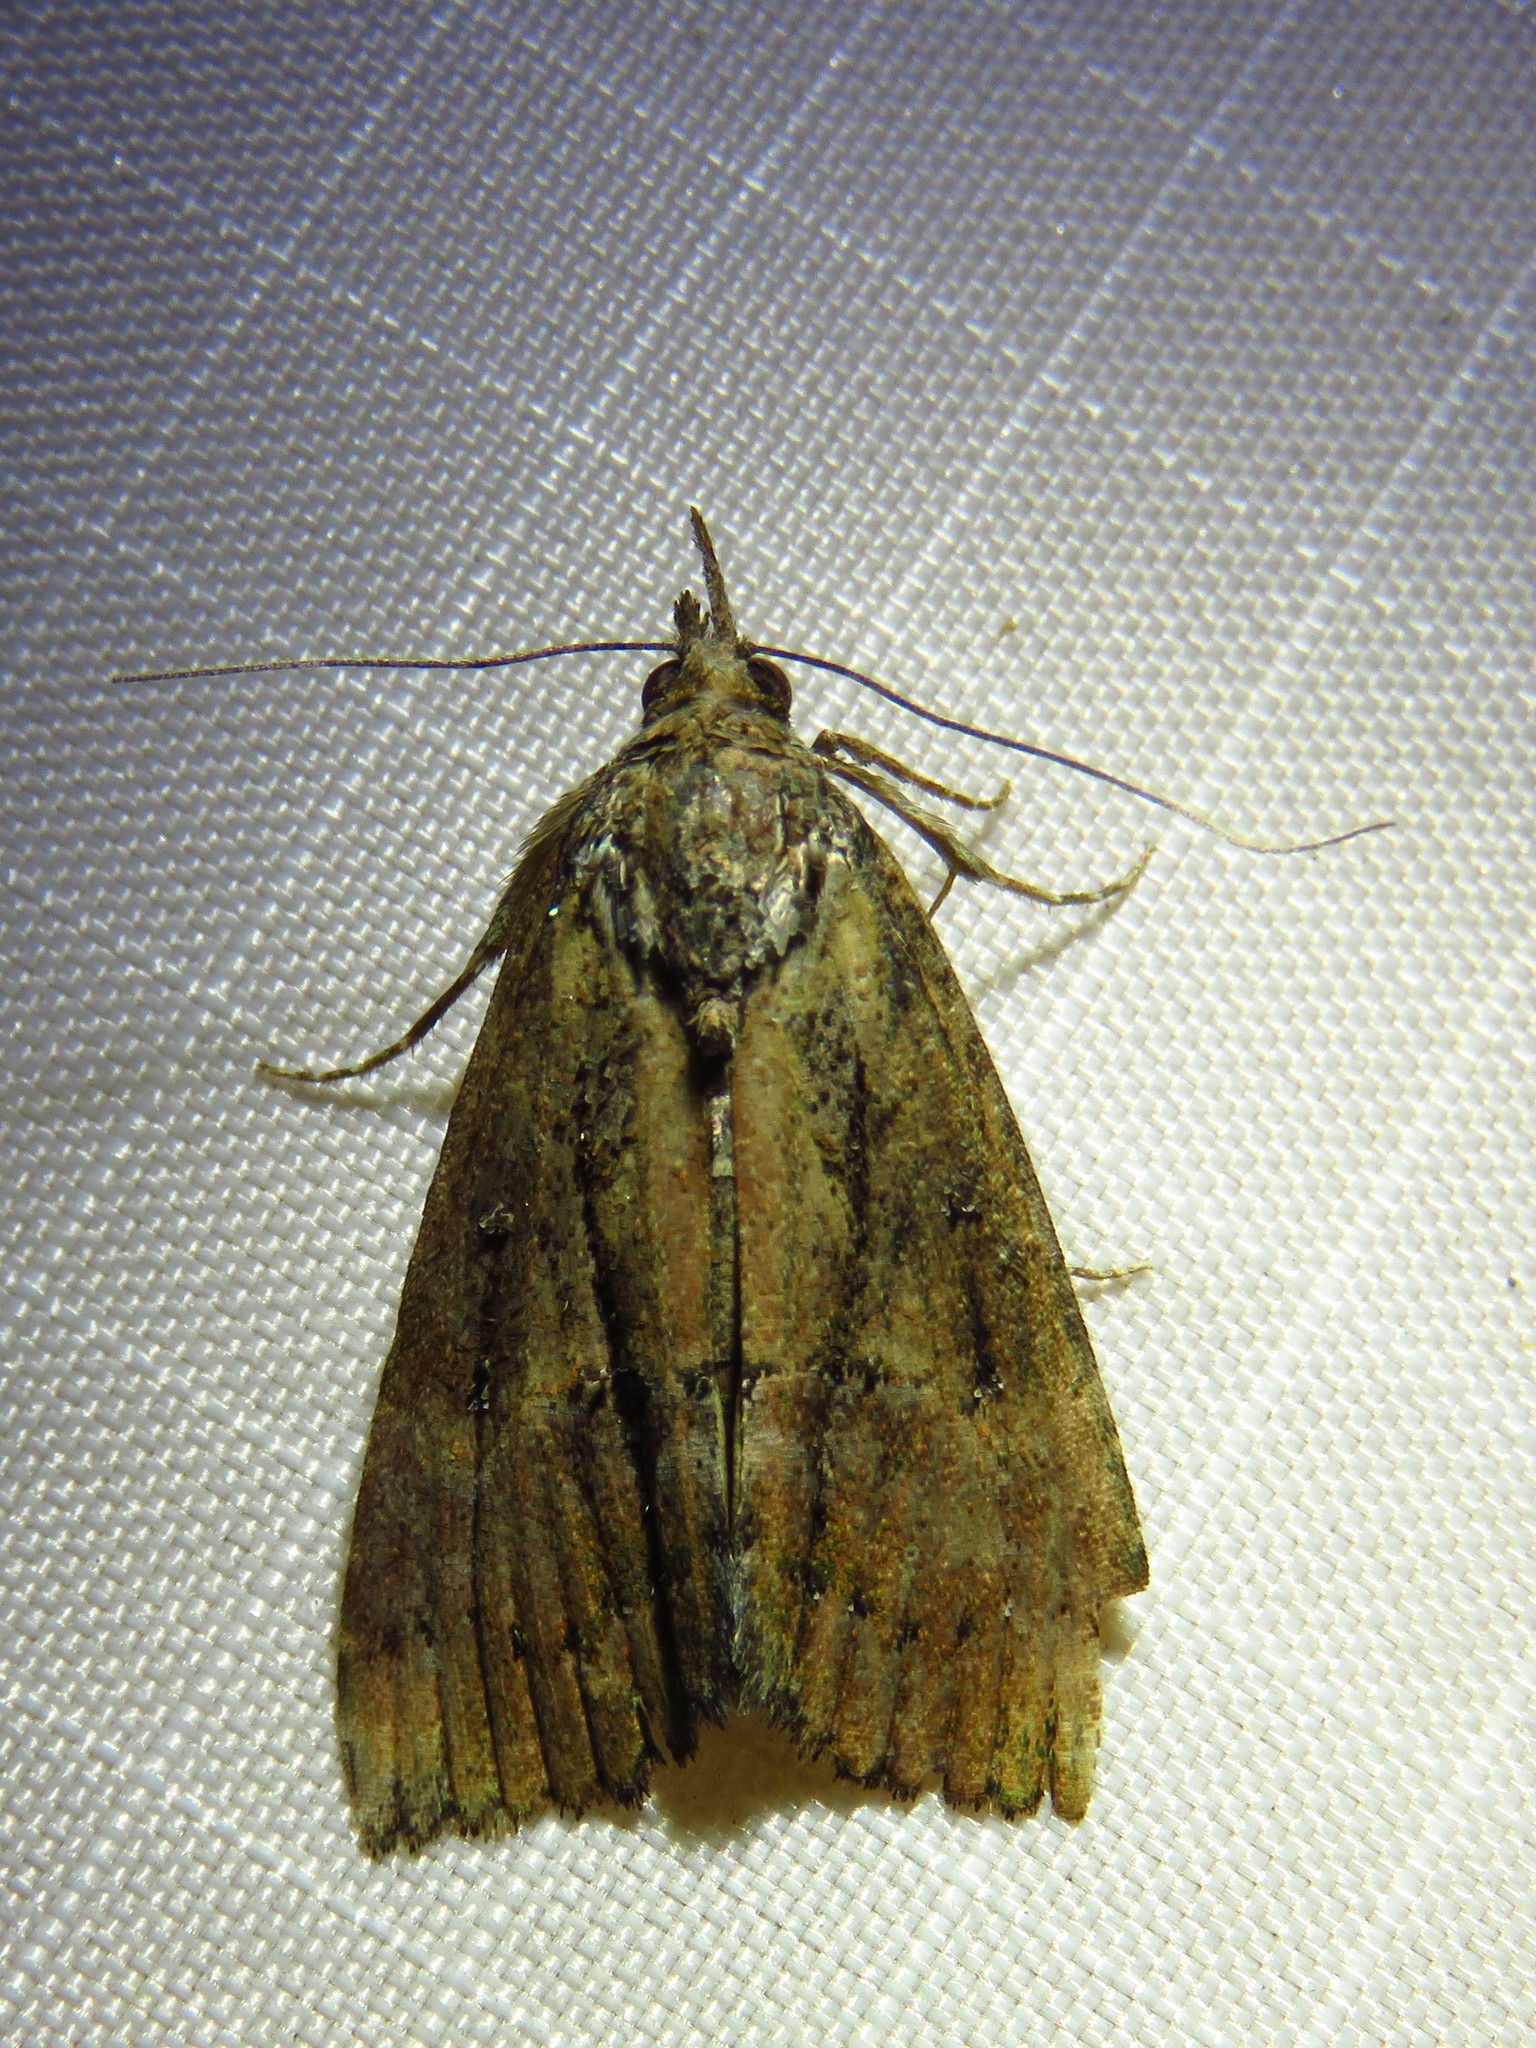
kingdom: Animalia
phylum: Arthropoda
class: Insecta
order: Lepidoptera
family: Erebidae
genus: Hypena
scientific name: Hypena scabra
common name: Green cloverworm
